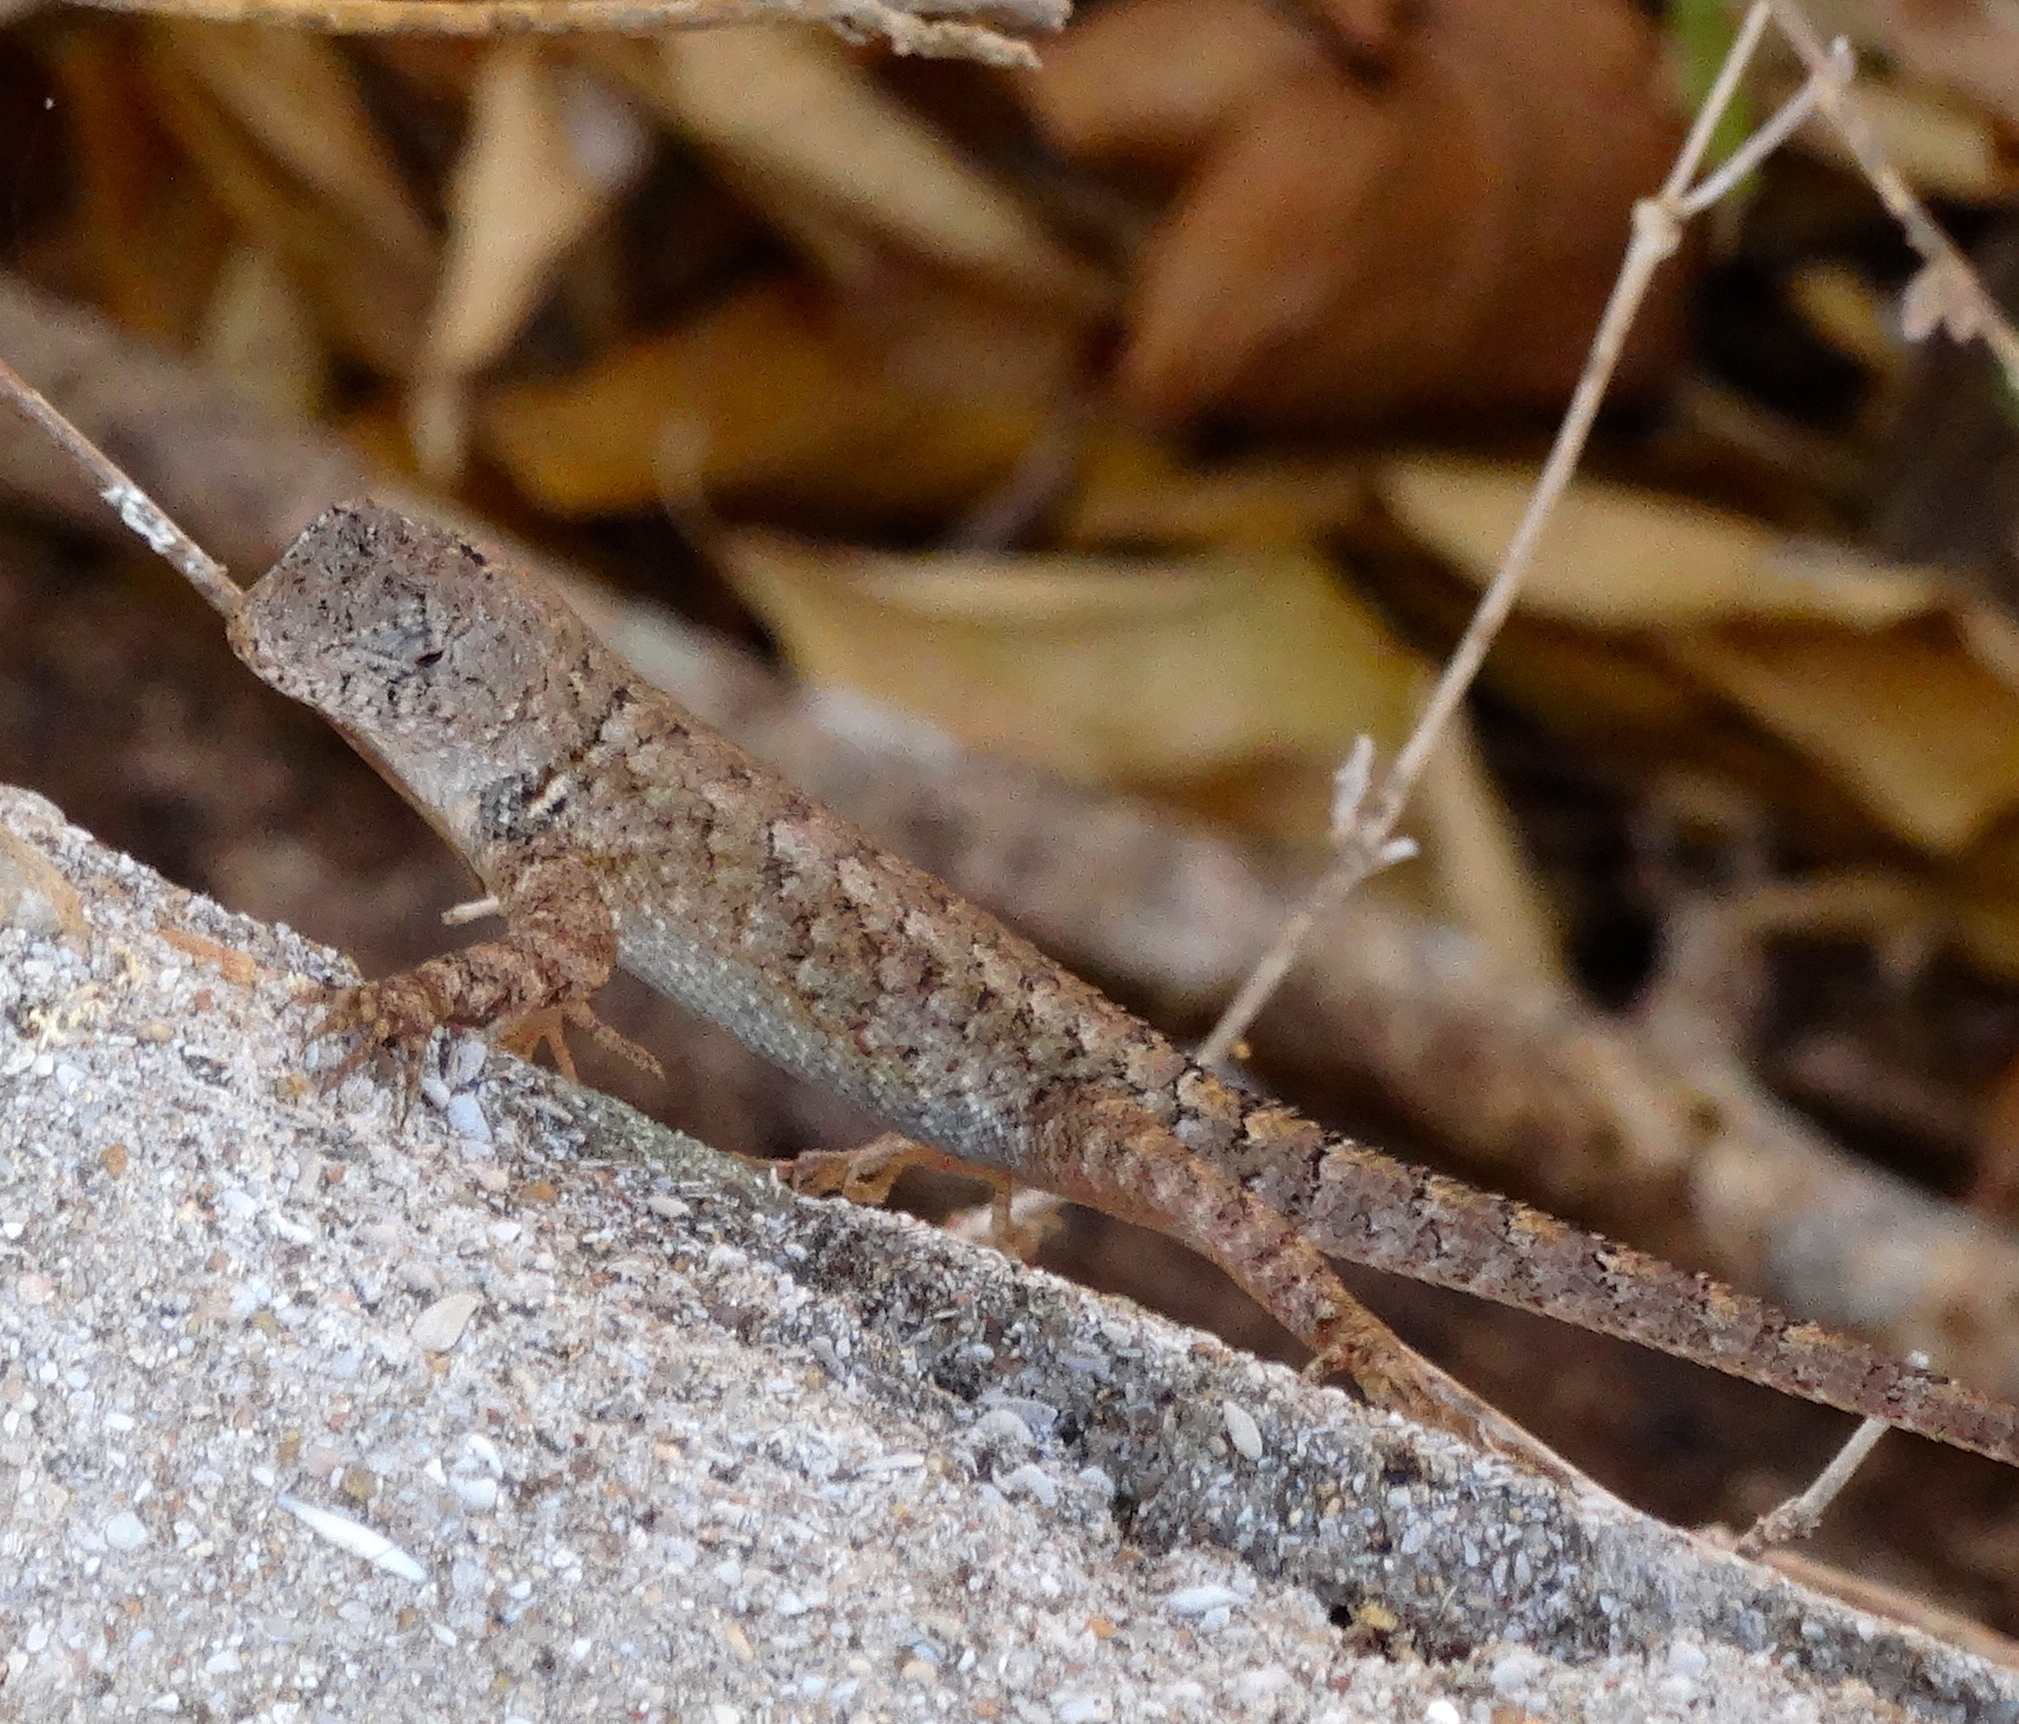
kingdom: Animalia
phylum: Chordata
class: Squamata
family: Phrynosomatidae
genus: Sceloporus
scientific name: Sceloporus nelsoni
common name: Nelson's spiny lizard
